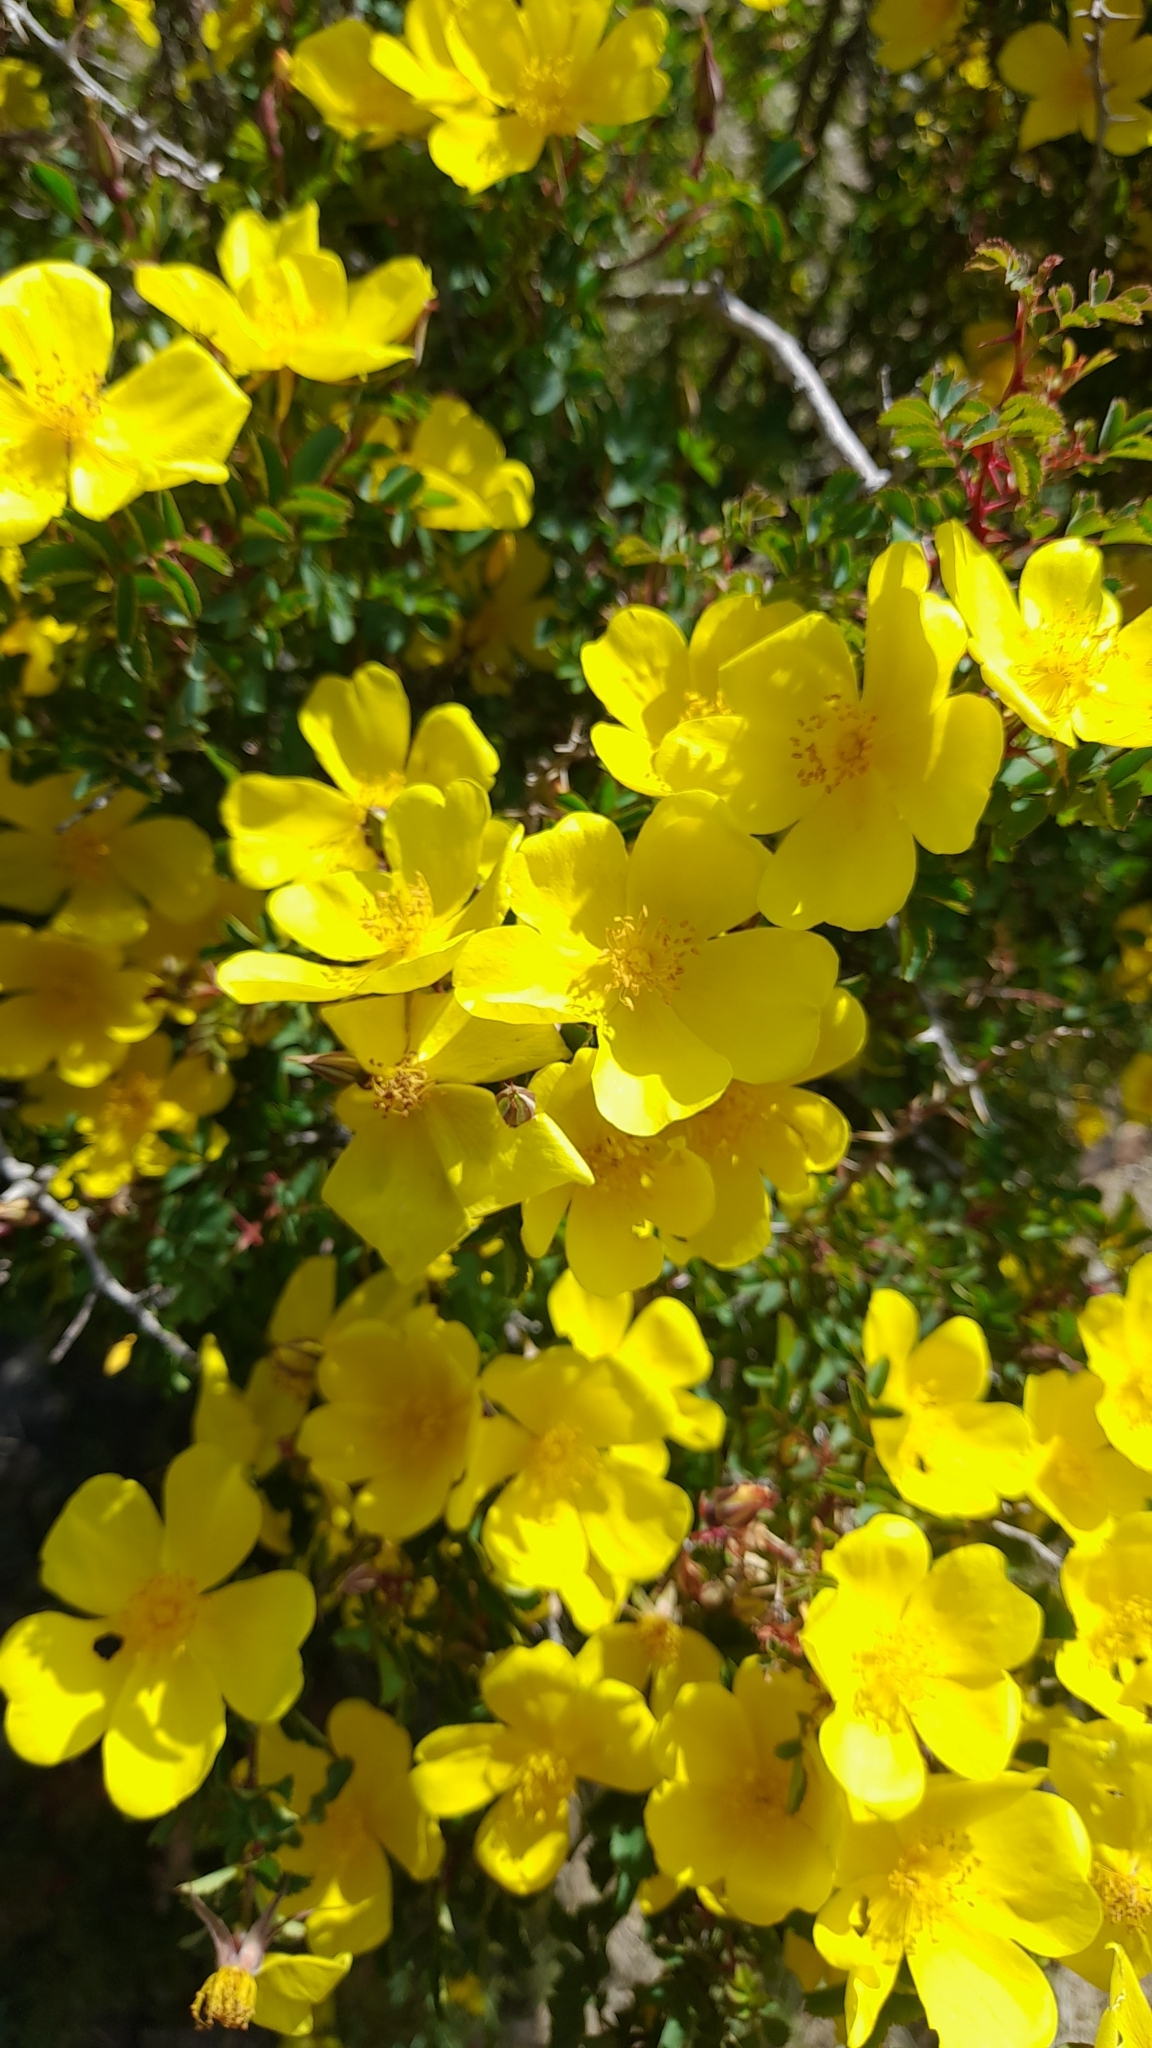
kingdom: Plantae
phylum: Tracheophyta
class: Magnoliopsida
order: Rosales
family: Rosaceae
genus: Rosa
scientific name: Rosa platyacantha
